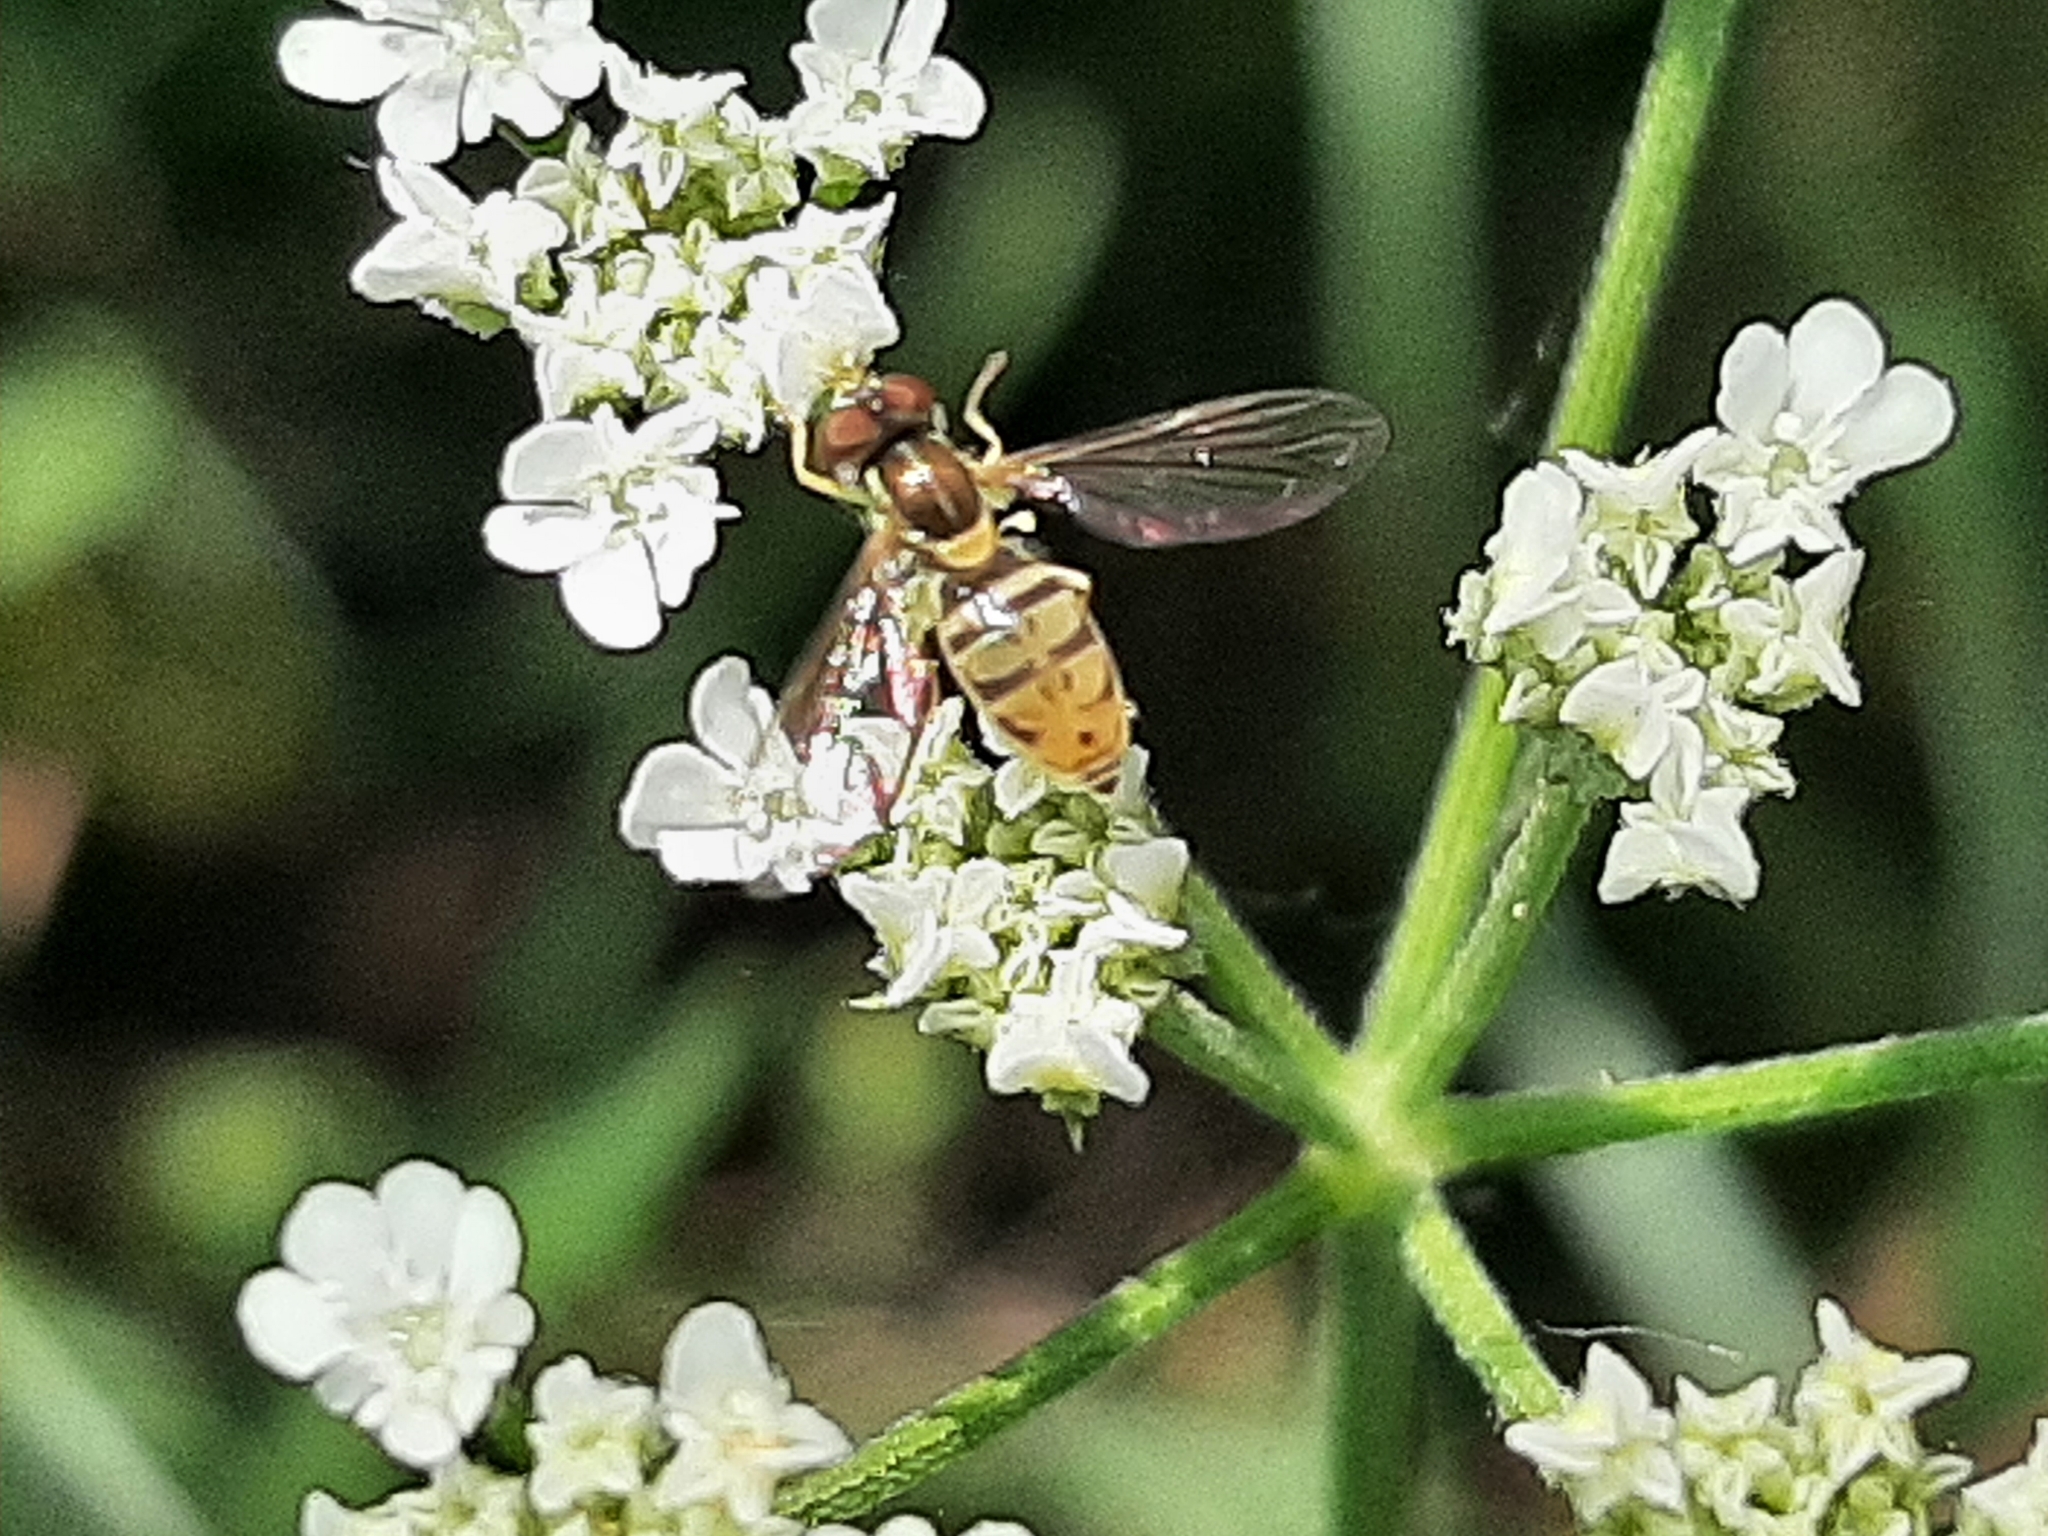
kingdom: Animalia
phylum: Arthropoda
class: Insecta
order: Diptera
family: Syrphidae
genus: Toxomerus
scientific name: Toxomerus marginatus
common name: Syrphid fly
